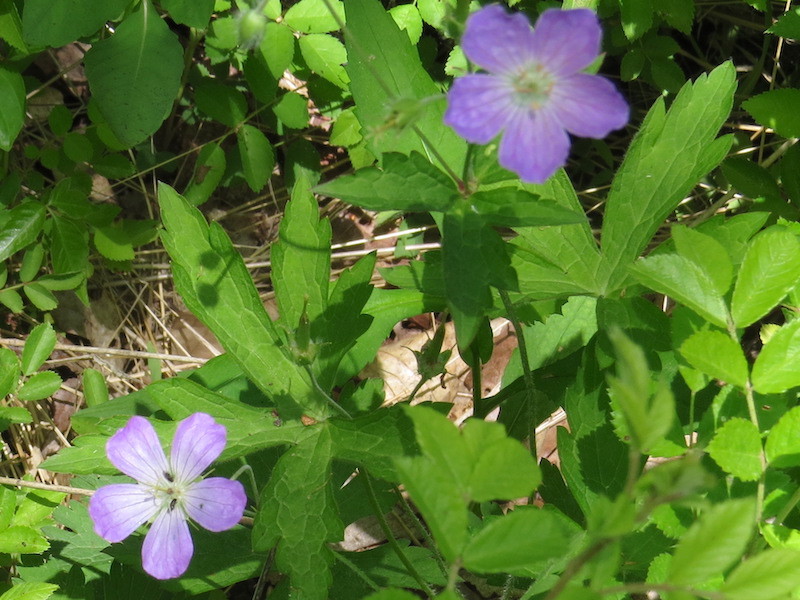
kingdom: Plantae
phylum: Tracheophyta
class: Magnoliopsida
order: Geraniales
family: Geraniaceae
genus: Geranium
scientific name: Geranium maculatum
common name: Spotted geranium
